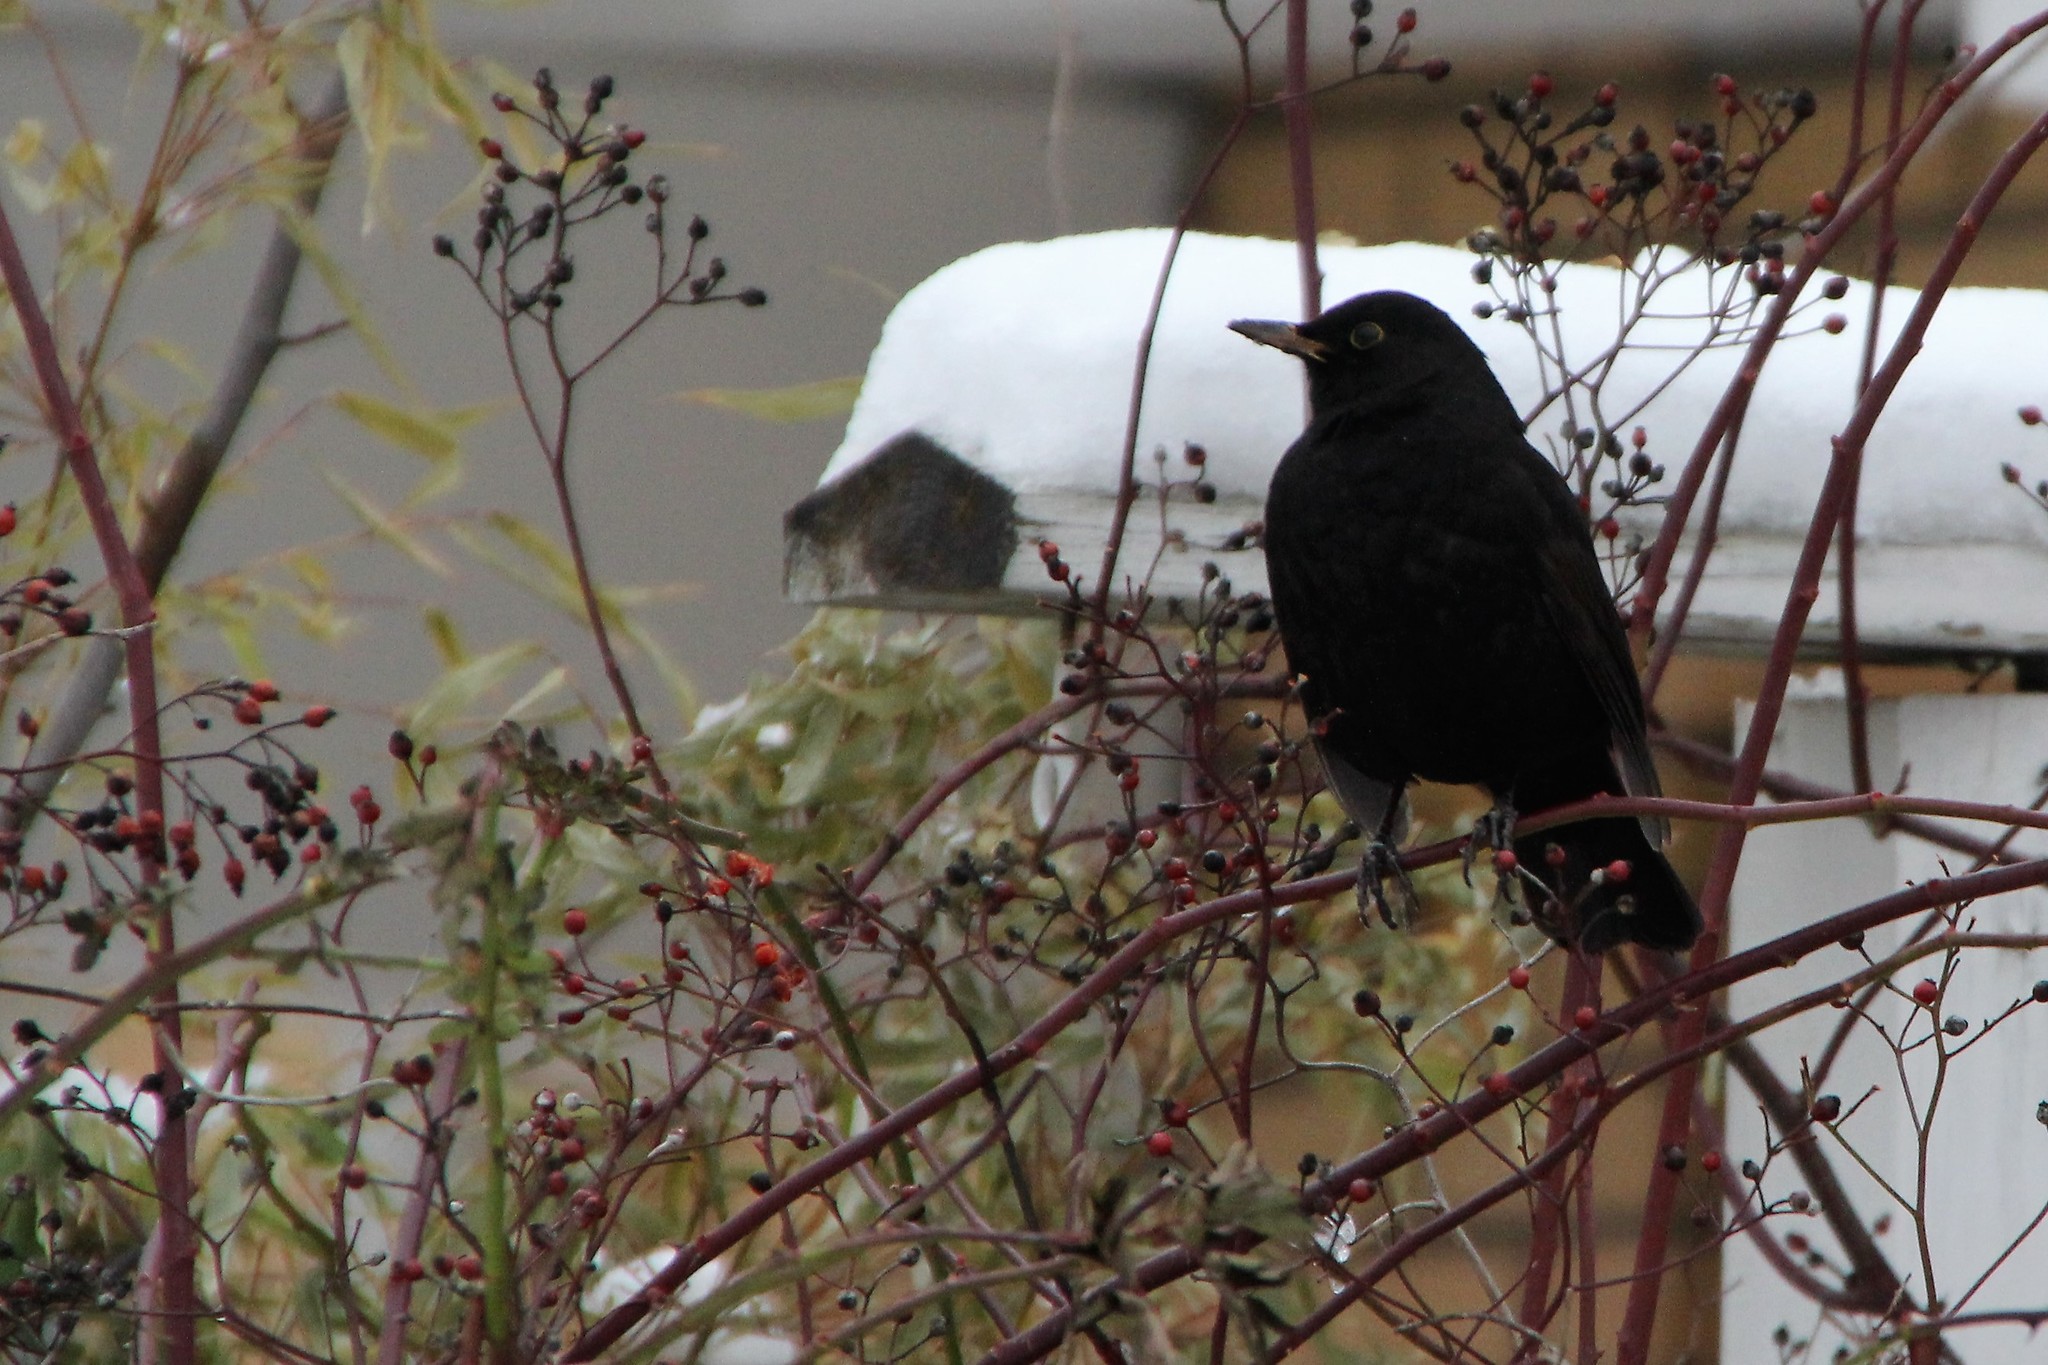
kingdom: Animalia
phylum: Chordata
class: Aves
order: Passeriformes
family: Turdidae
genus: Turdus
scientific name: Turdus merula
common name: Common blackbird
